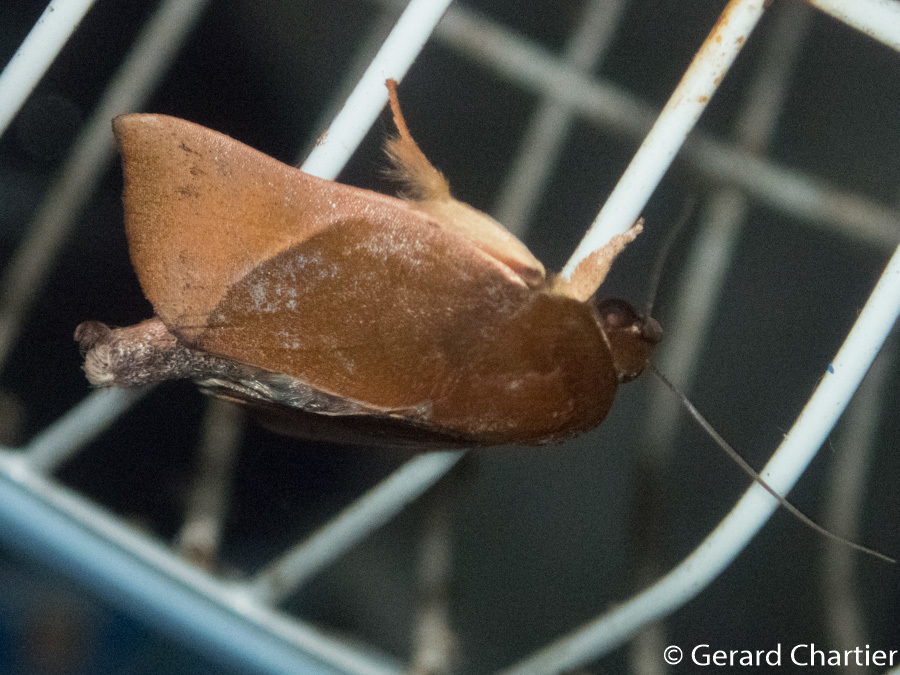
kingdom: Animalia
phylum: Arthropoda
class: Insecta
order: Lepidoptera
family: Nolidae
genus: Chora
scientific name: Chora repandens
